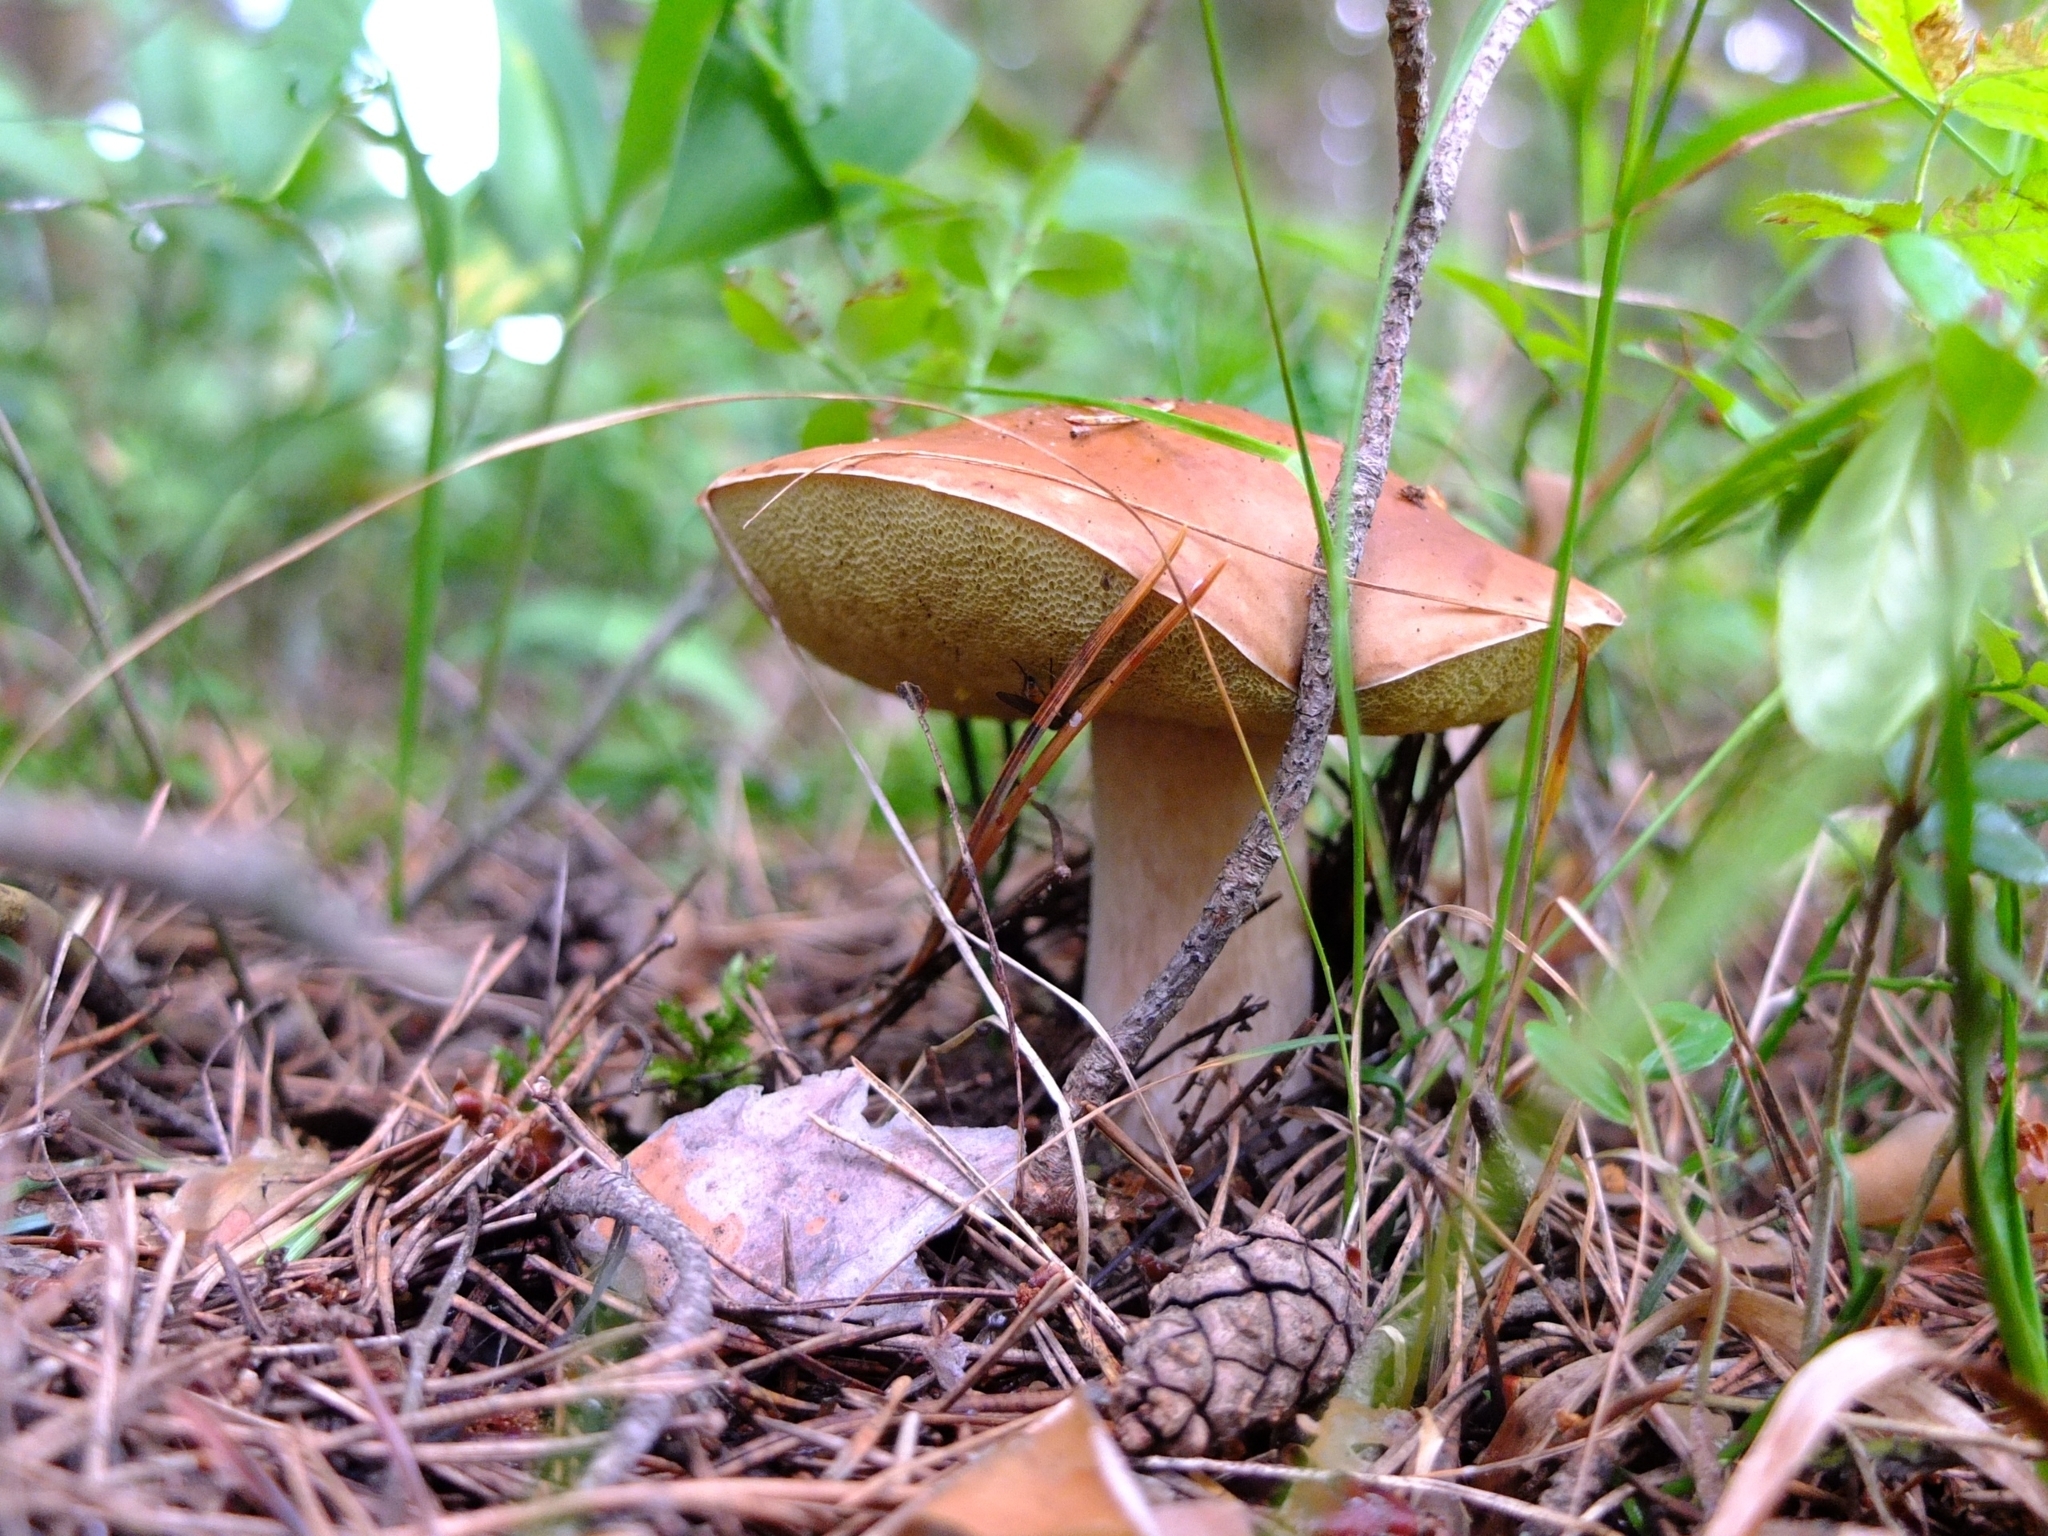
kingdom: Fungi
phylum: Basidiomycota
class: Agaricomycetes
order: Boletales
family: Boletaceae
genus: Boletus
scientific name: Boletus edulis
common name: Cep
